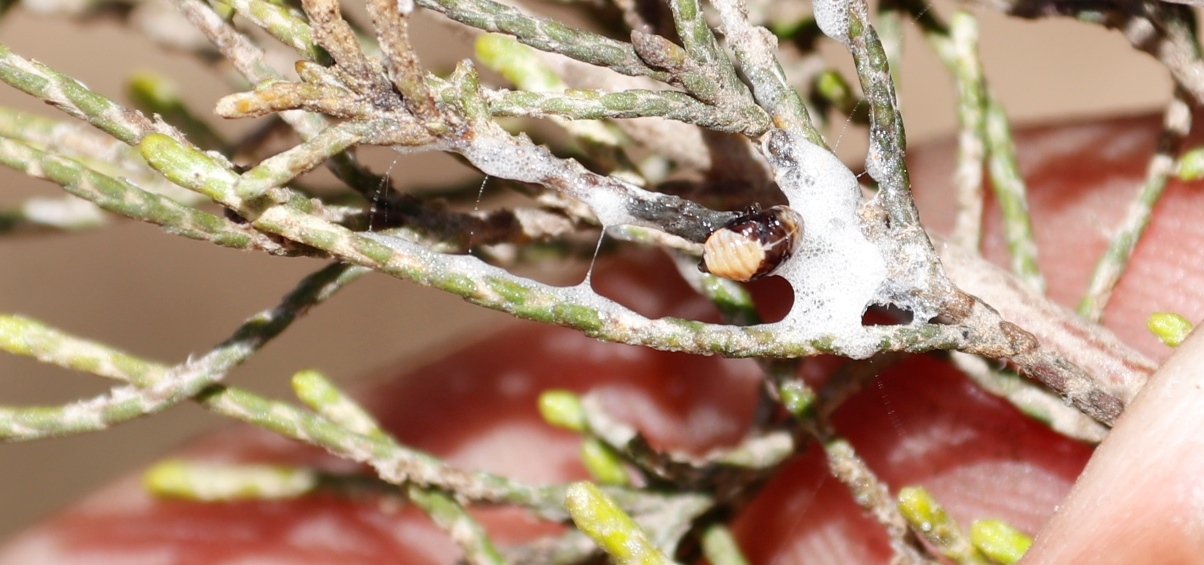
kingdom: Plantae
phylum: Tracheophyta
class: Magnoliopsida
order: Asterales
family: Asteraceae
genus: Dicerothamnus
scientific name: Dicerothamnus rhinocerotis
